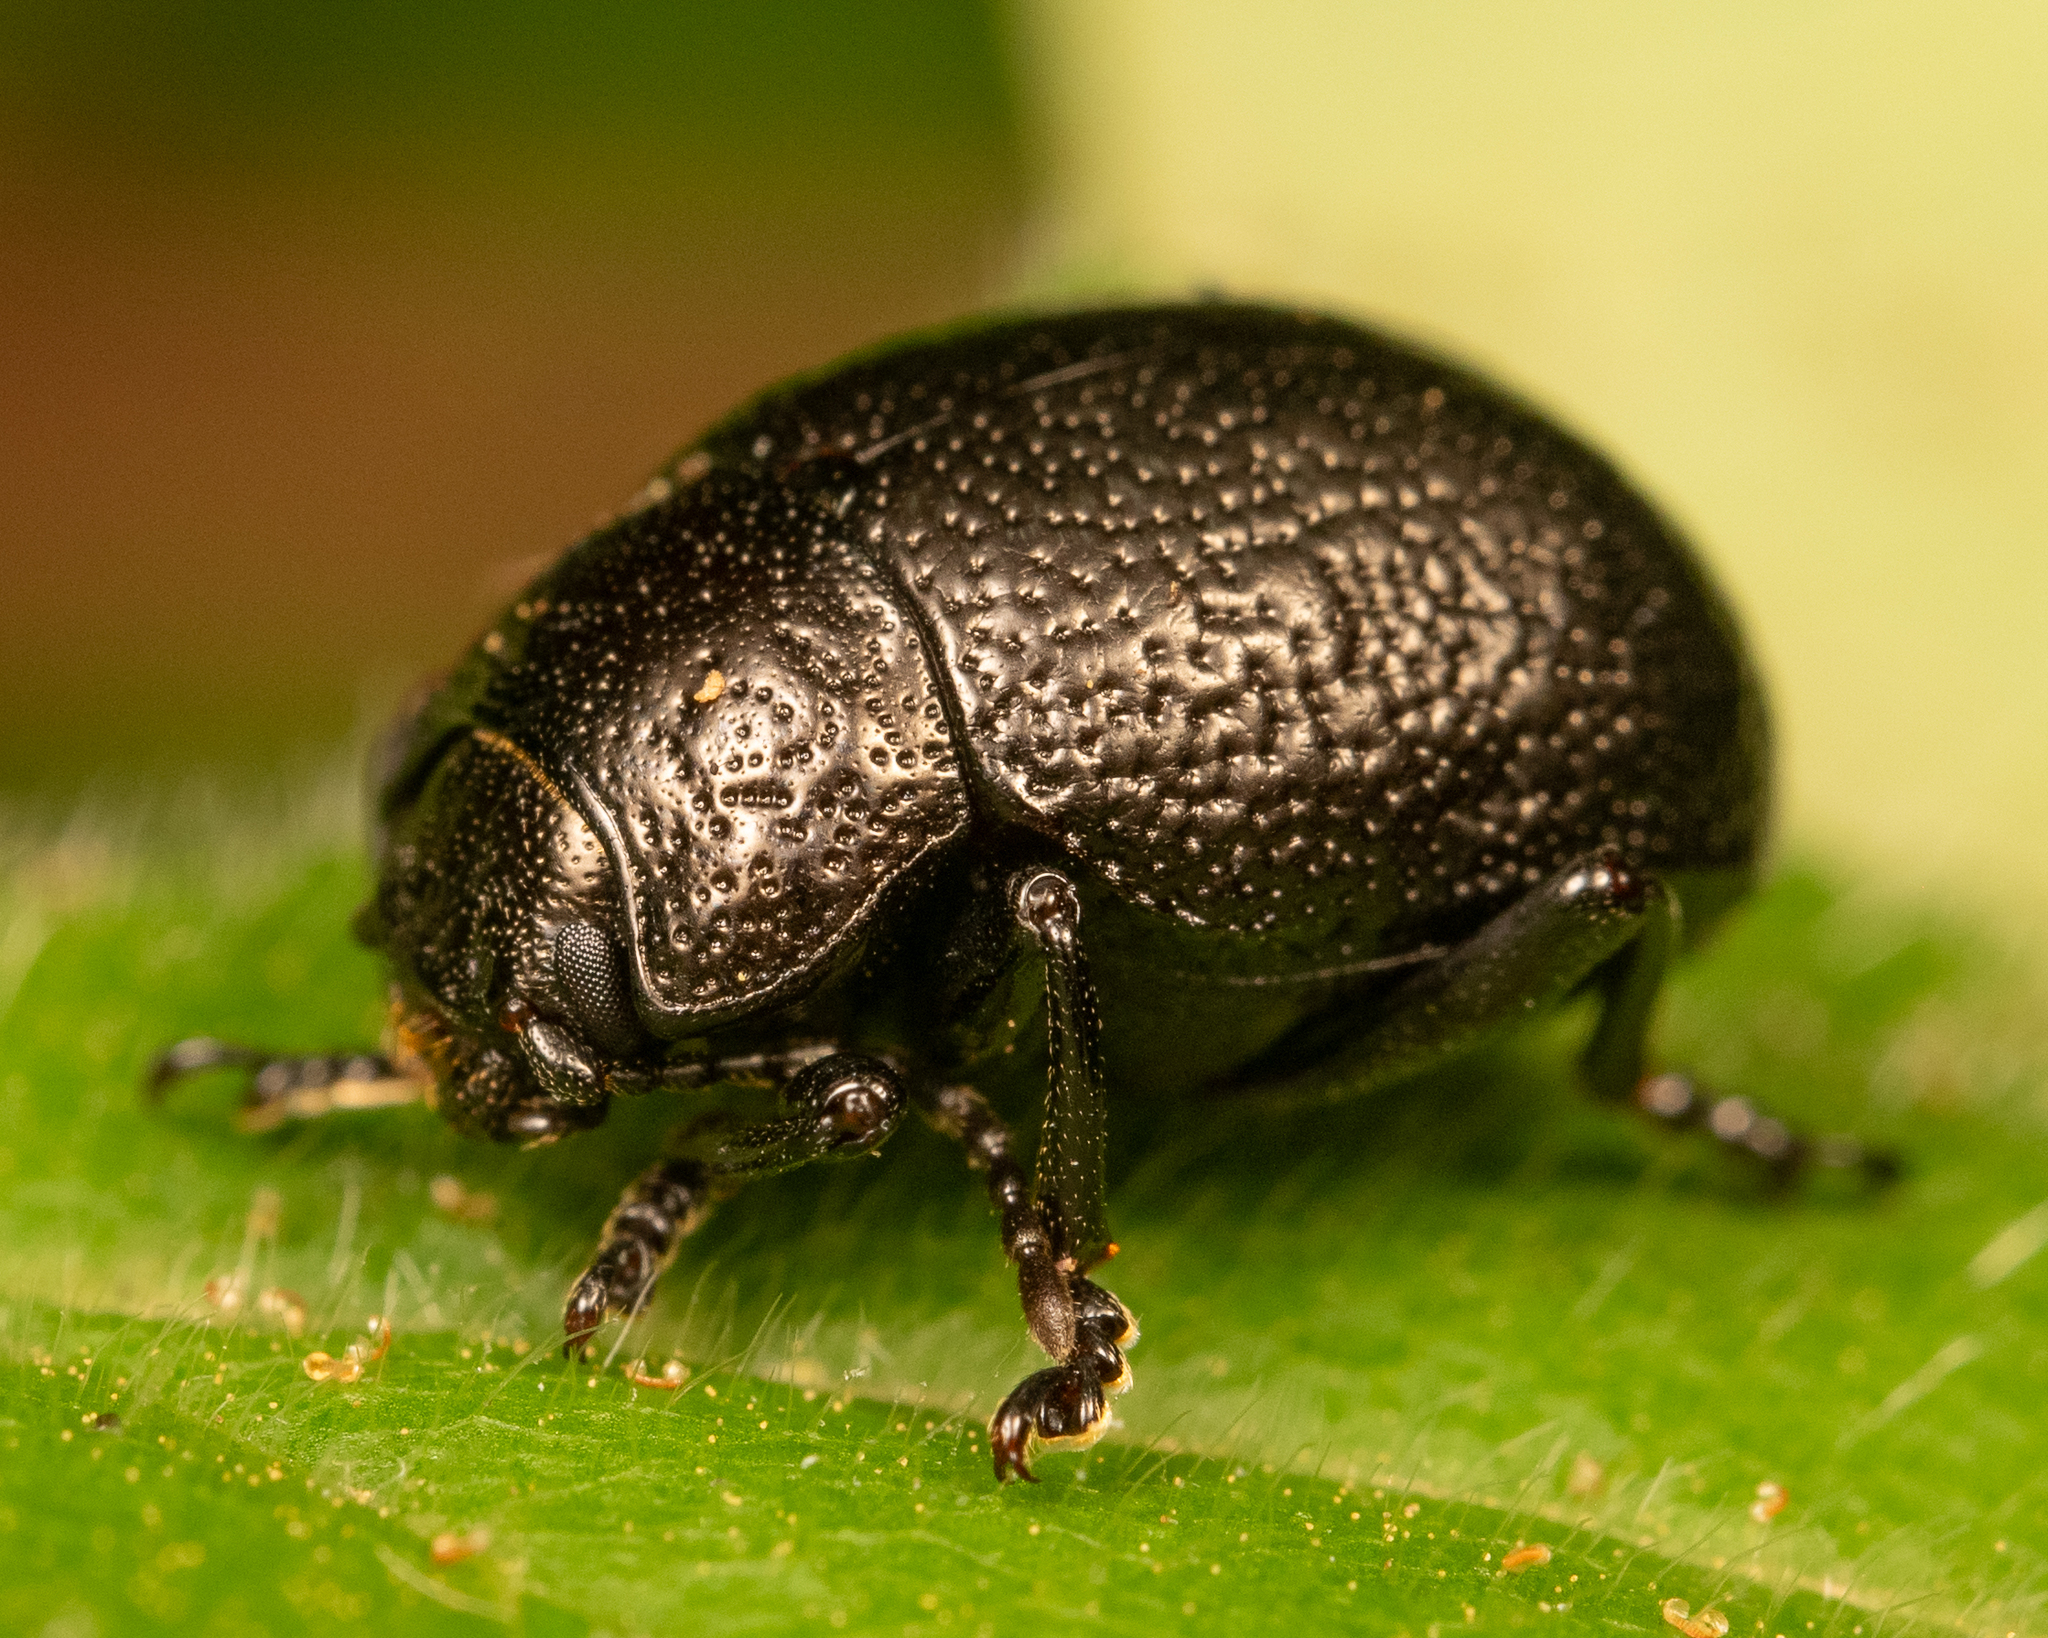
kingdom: Animalia
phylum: Arthropoda
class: Insecta
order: Coleoptera
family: Chrysomelidae
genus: Timarcha
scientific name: Timarcha intricata
